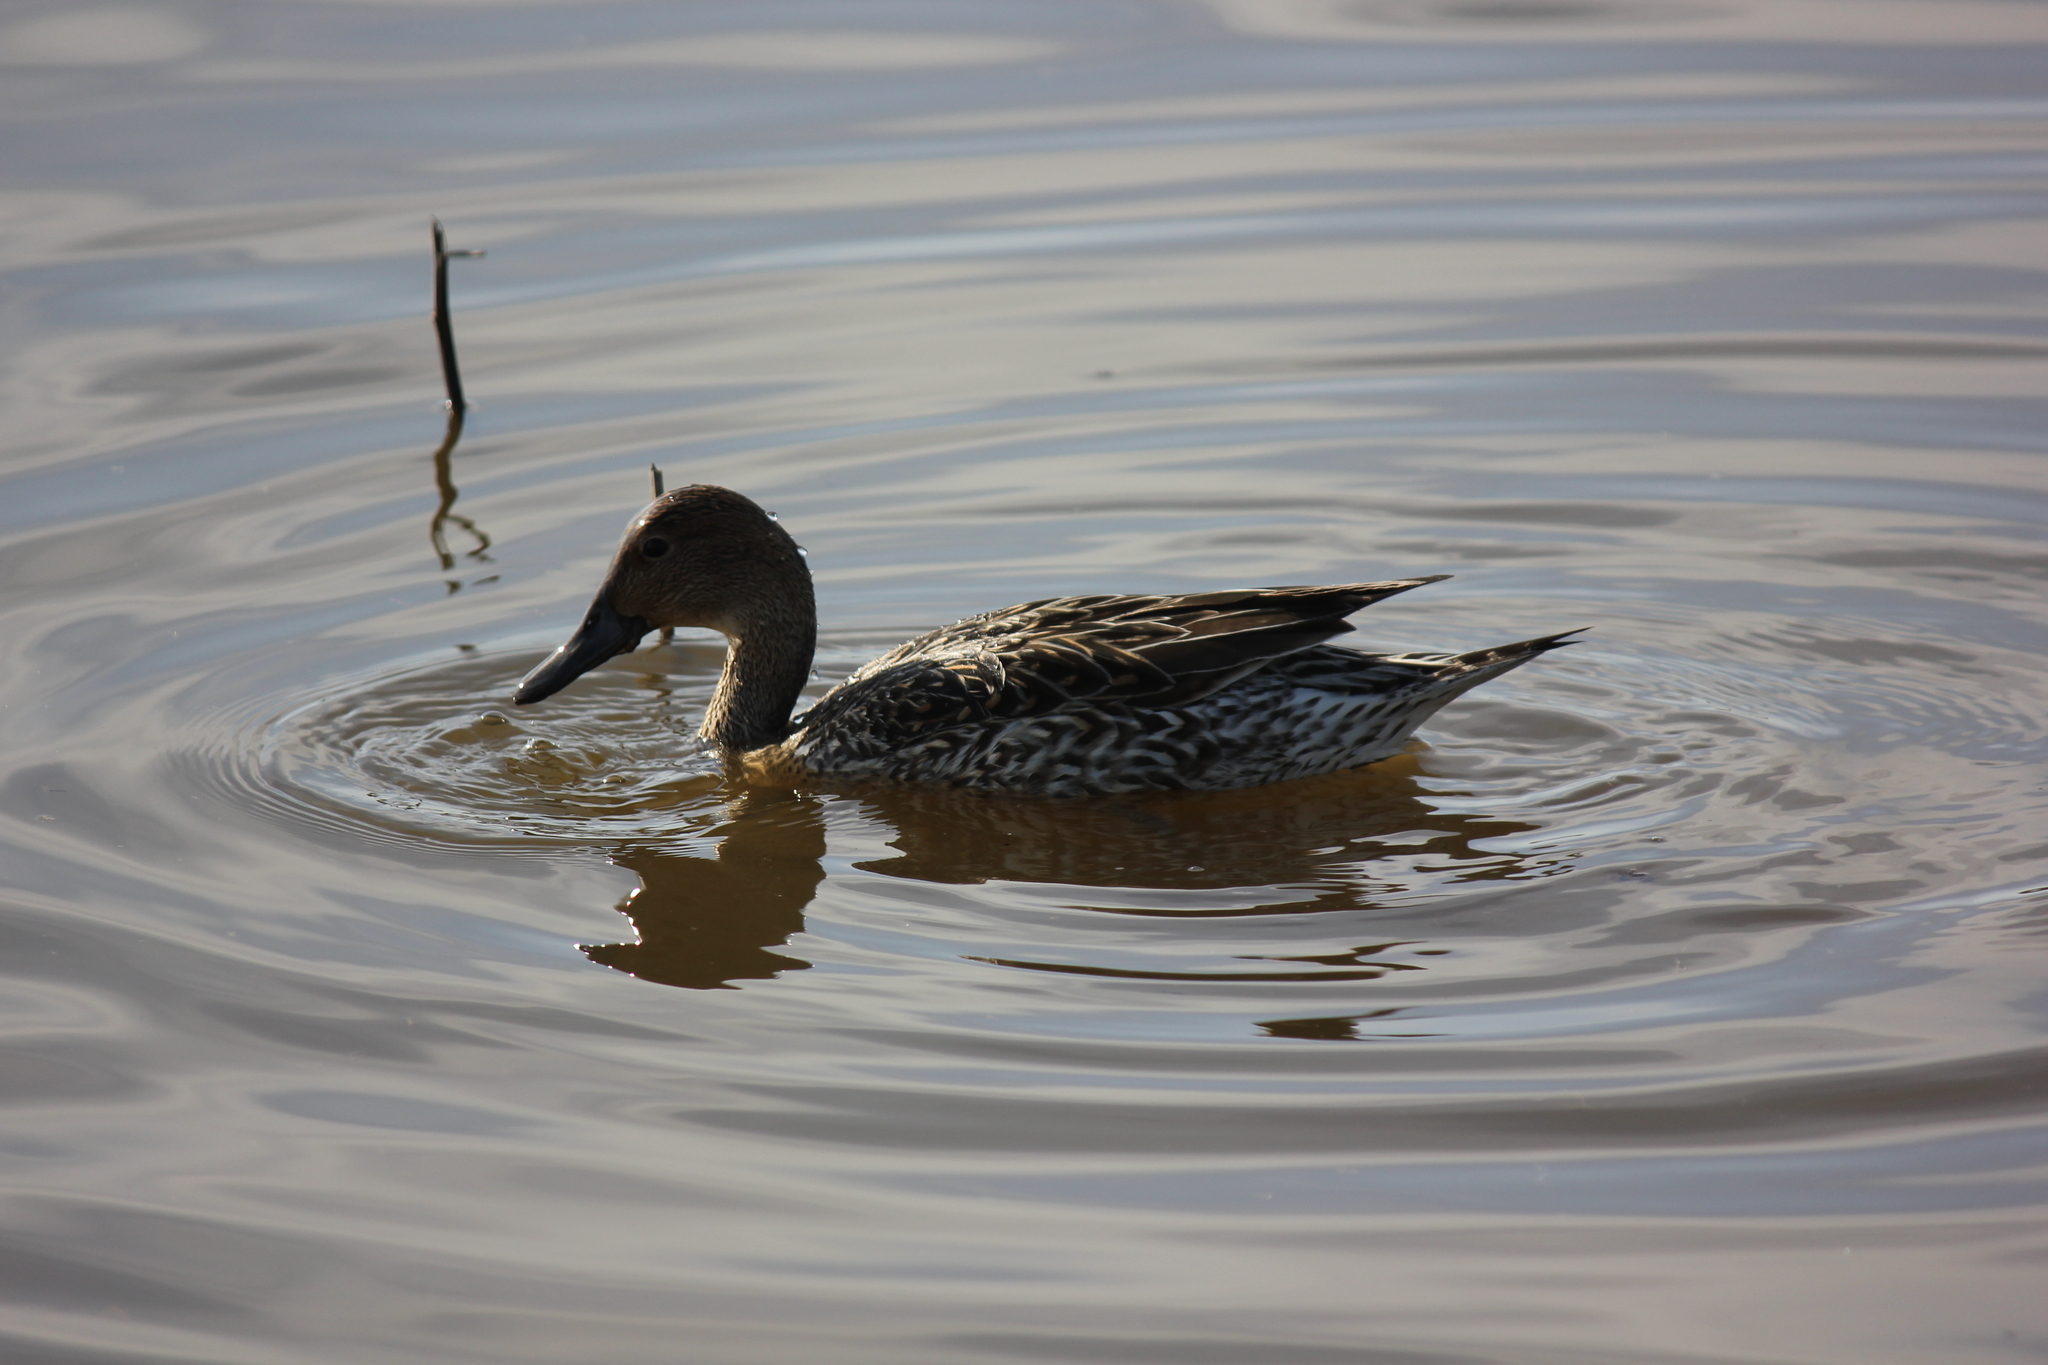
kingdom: Animalia
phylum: Chordata
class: Aves
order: Anseriformes
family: Anatidae
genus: Anas
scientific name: Anas acuta
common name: Northern pintail
